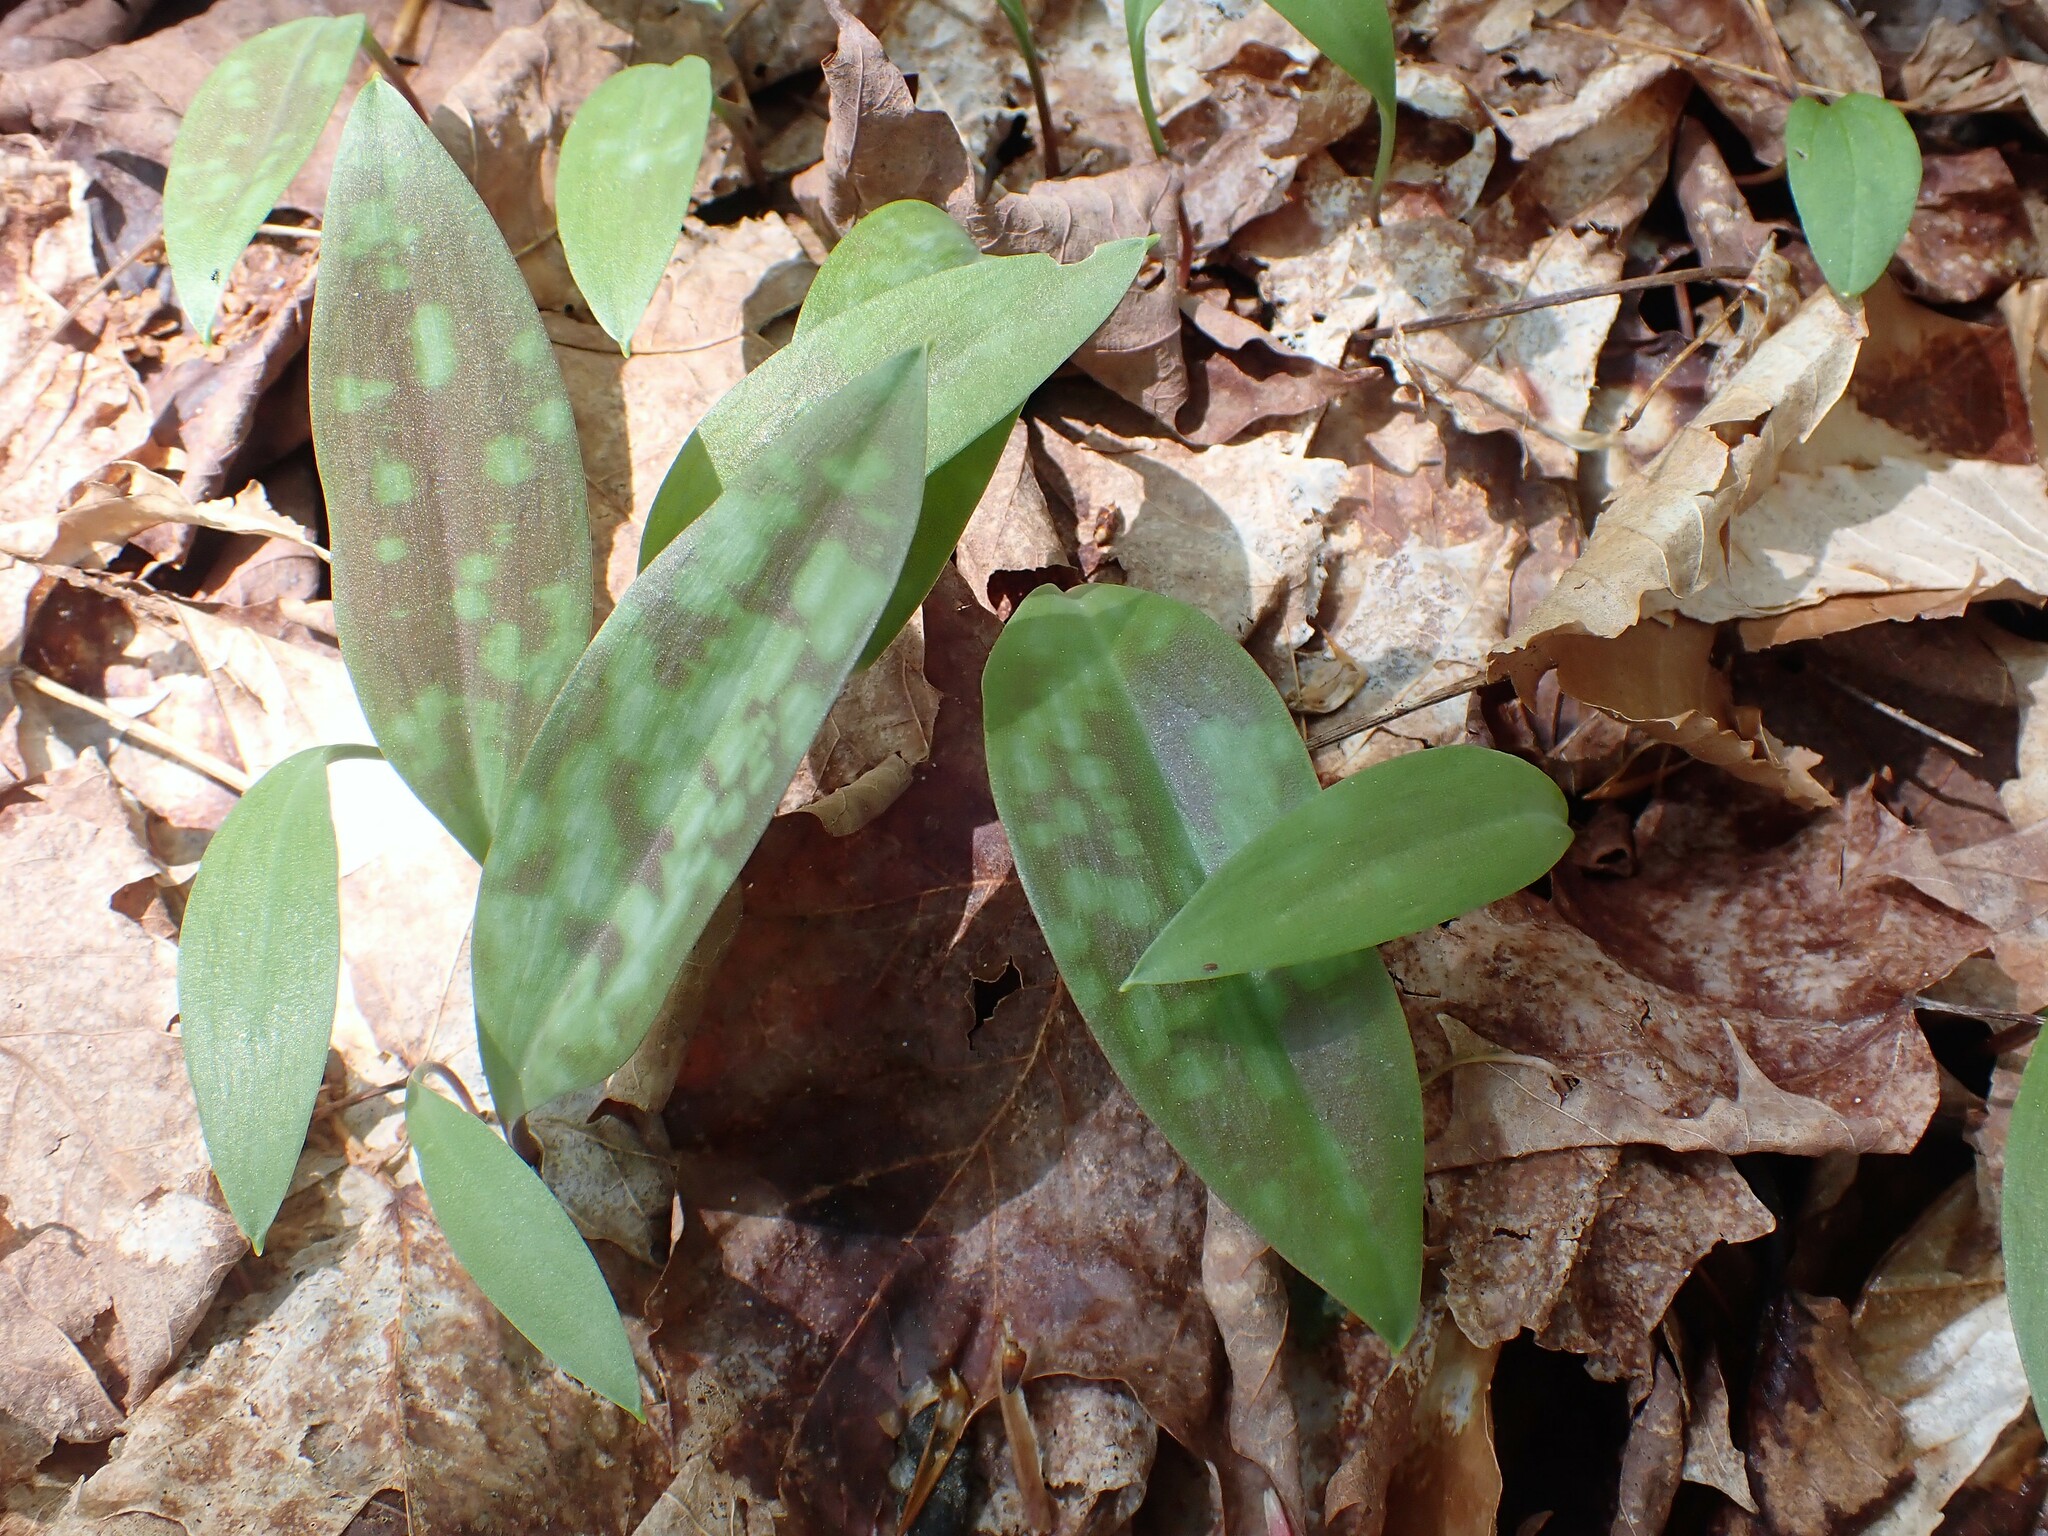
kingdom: Plantae
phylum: Tracheophyta
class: Liliopsida
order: Liliales
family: Liliaceae
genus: Erythronium
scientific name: Erythronium americanum
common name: Yellow adder's-tongue
